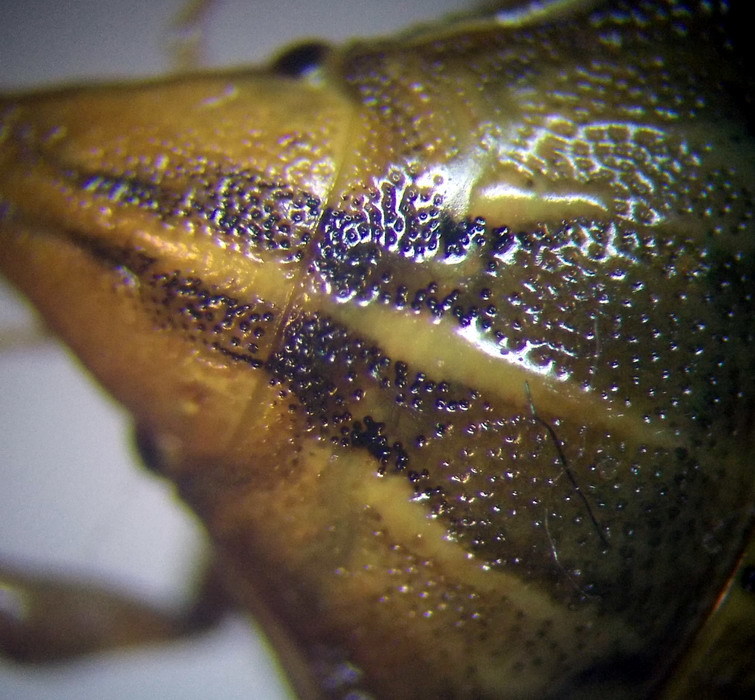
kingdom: Animalia
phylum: Arthropoda
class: Insecta
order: Hemiptera
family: Pentatomidae
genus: Aelia
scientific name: Aelia rostrata
